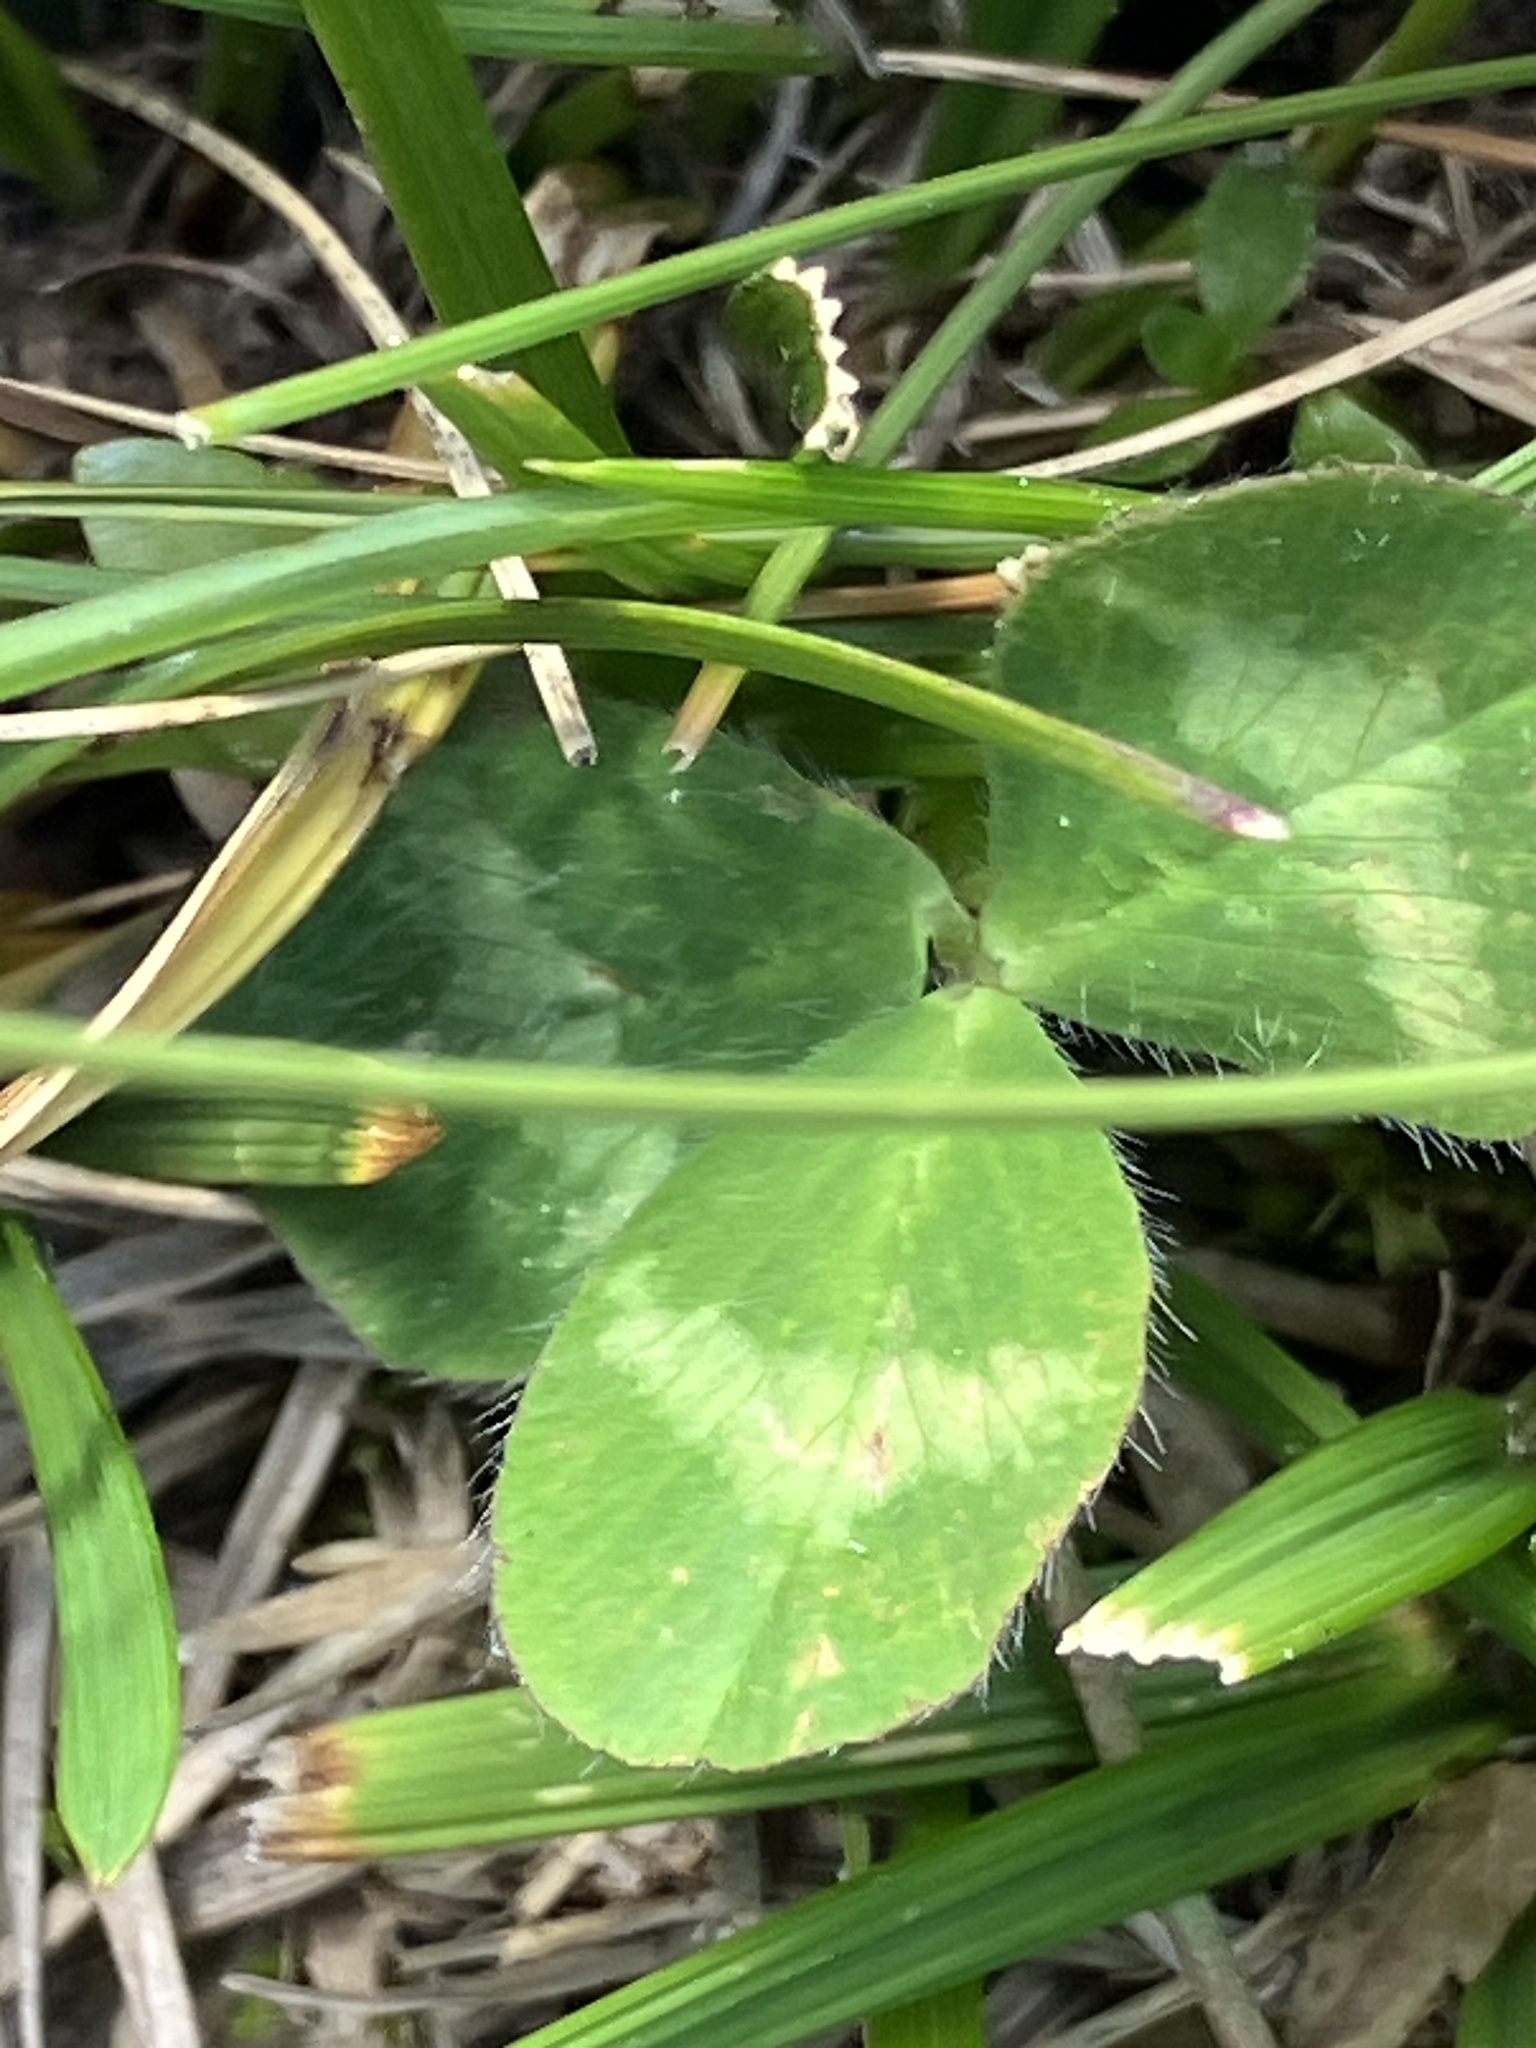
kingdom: Plantae
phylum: Tracheophyta
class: Magnoliopsida
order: Fabales
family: Fabaceae
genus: Trifolium
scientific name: Trifolium pratense
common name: Red clover
